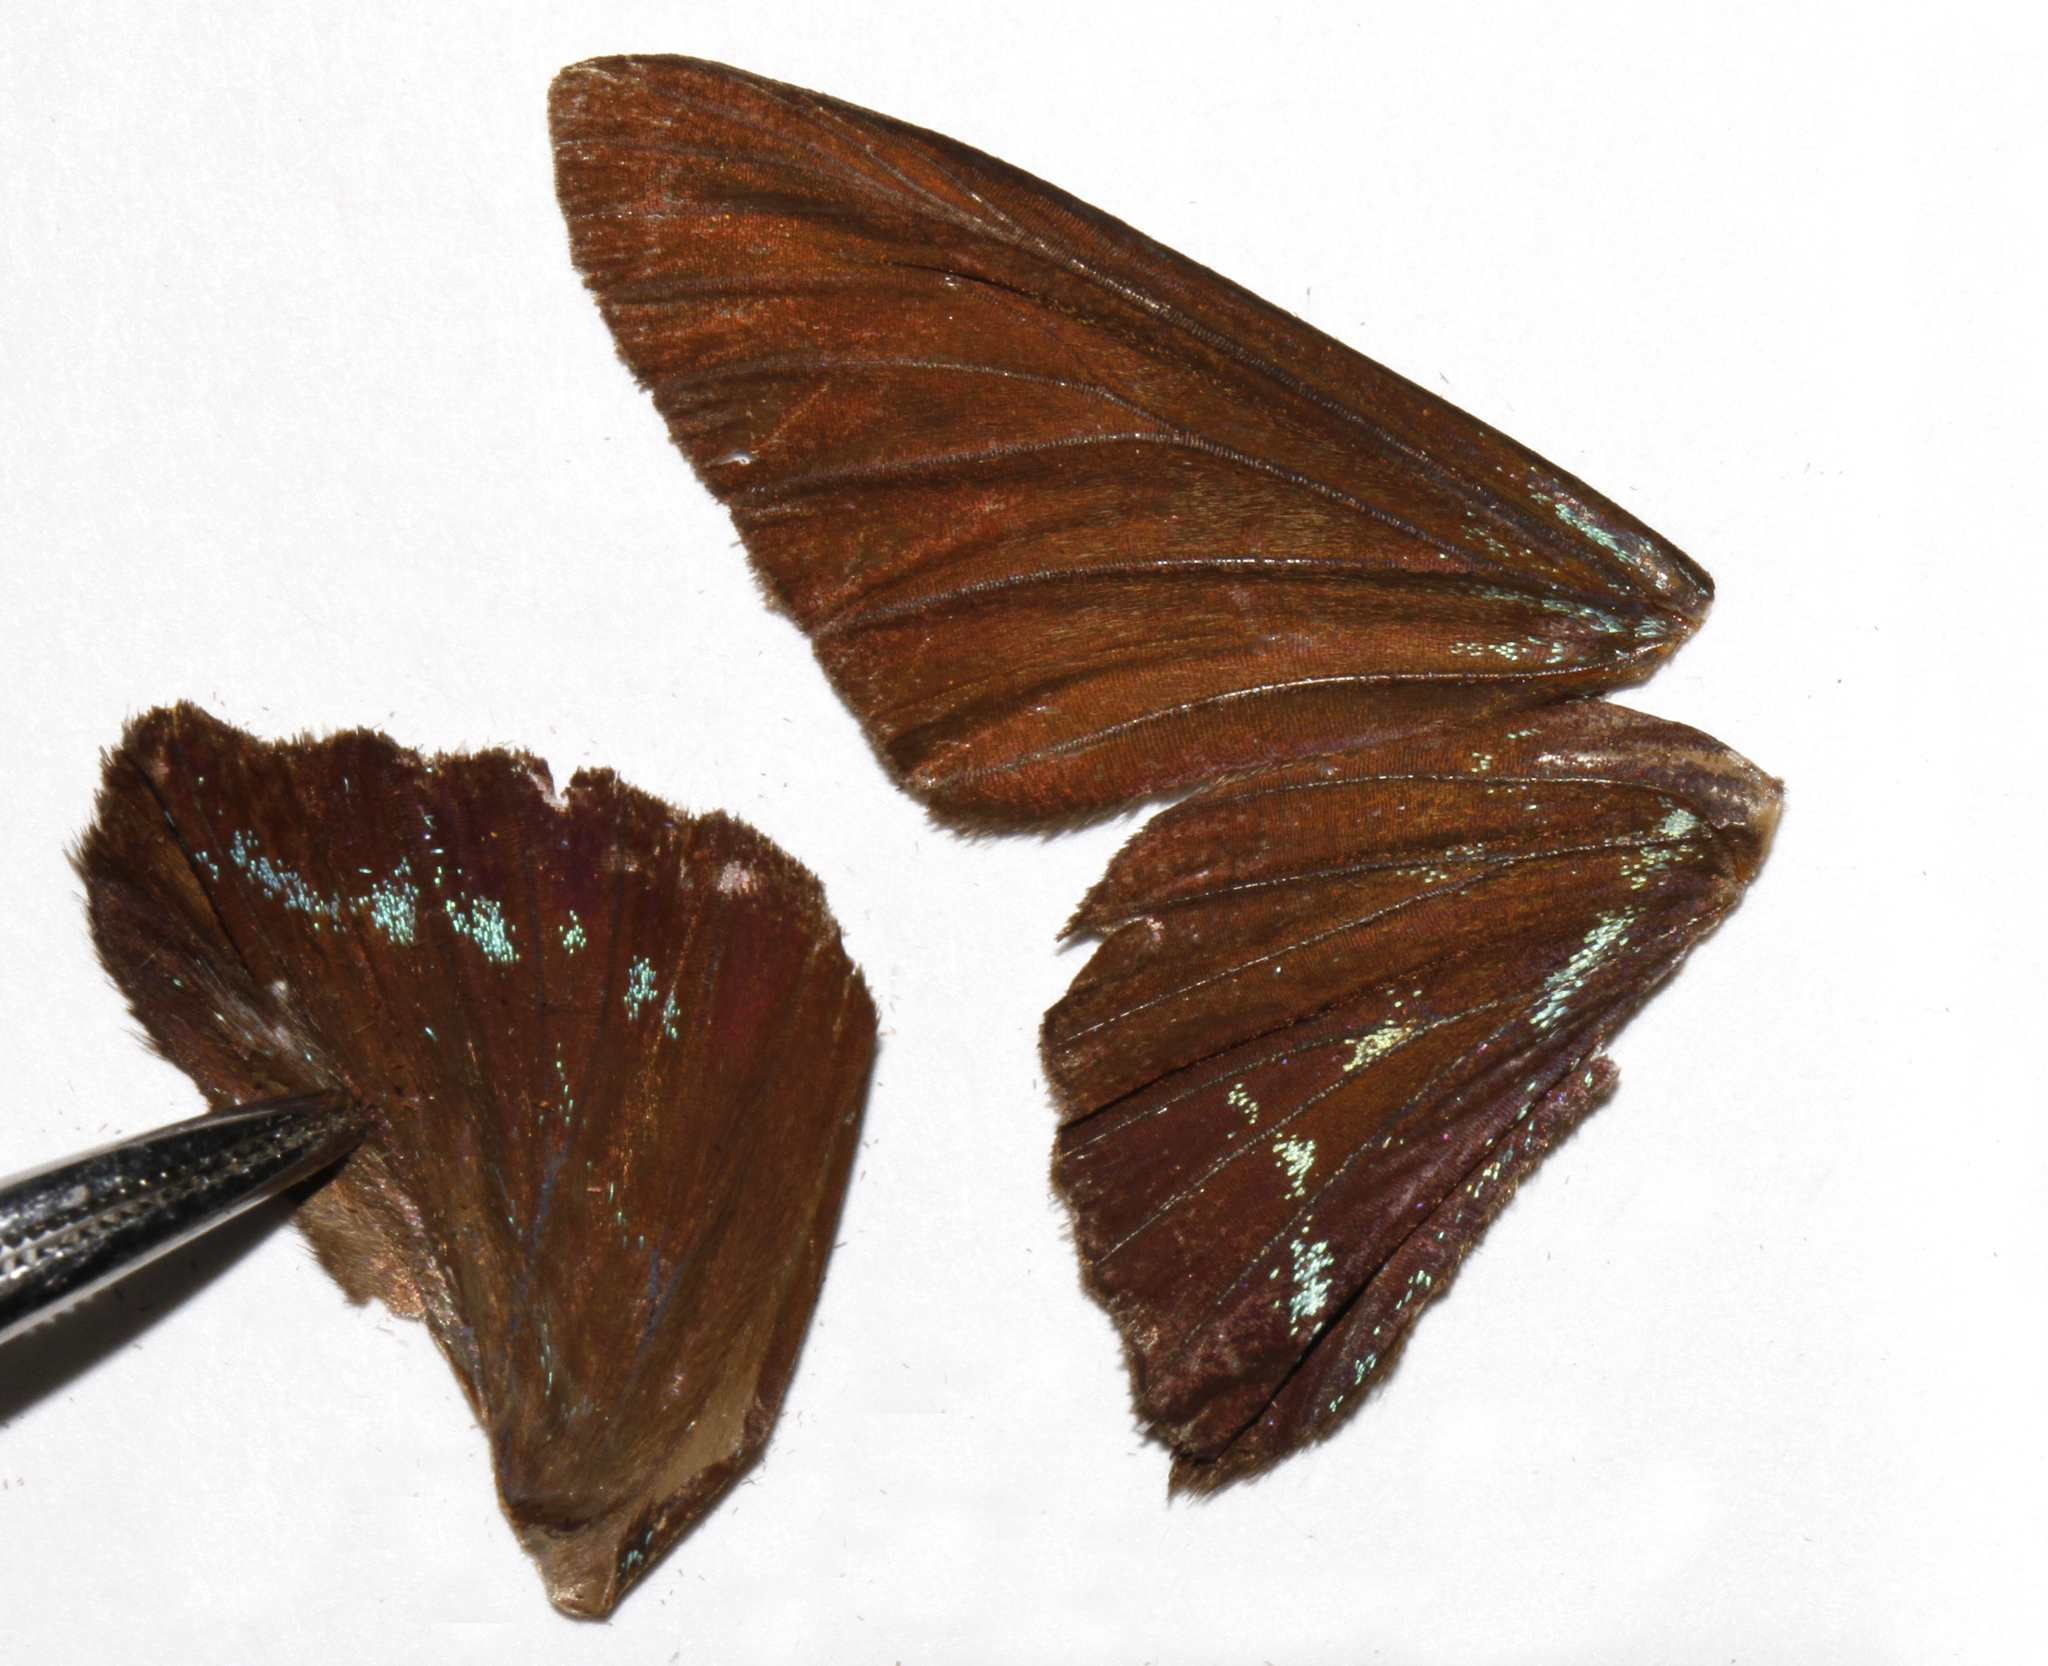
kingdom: Animalia
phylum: Arthropoda
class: Insecta
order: Lepidoptera
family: Hesperiidae
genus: Phocides
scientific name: Phocides pigmalion
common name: Mangrove skipper
